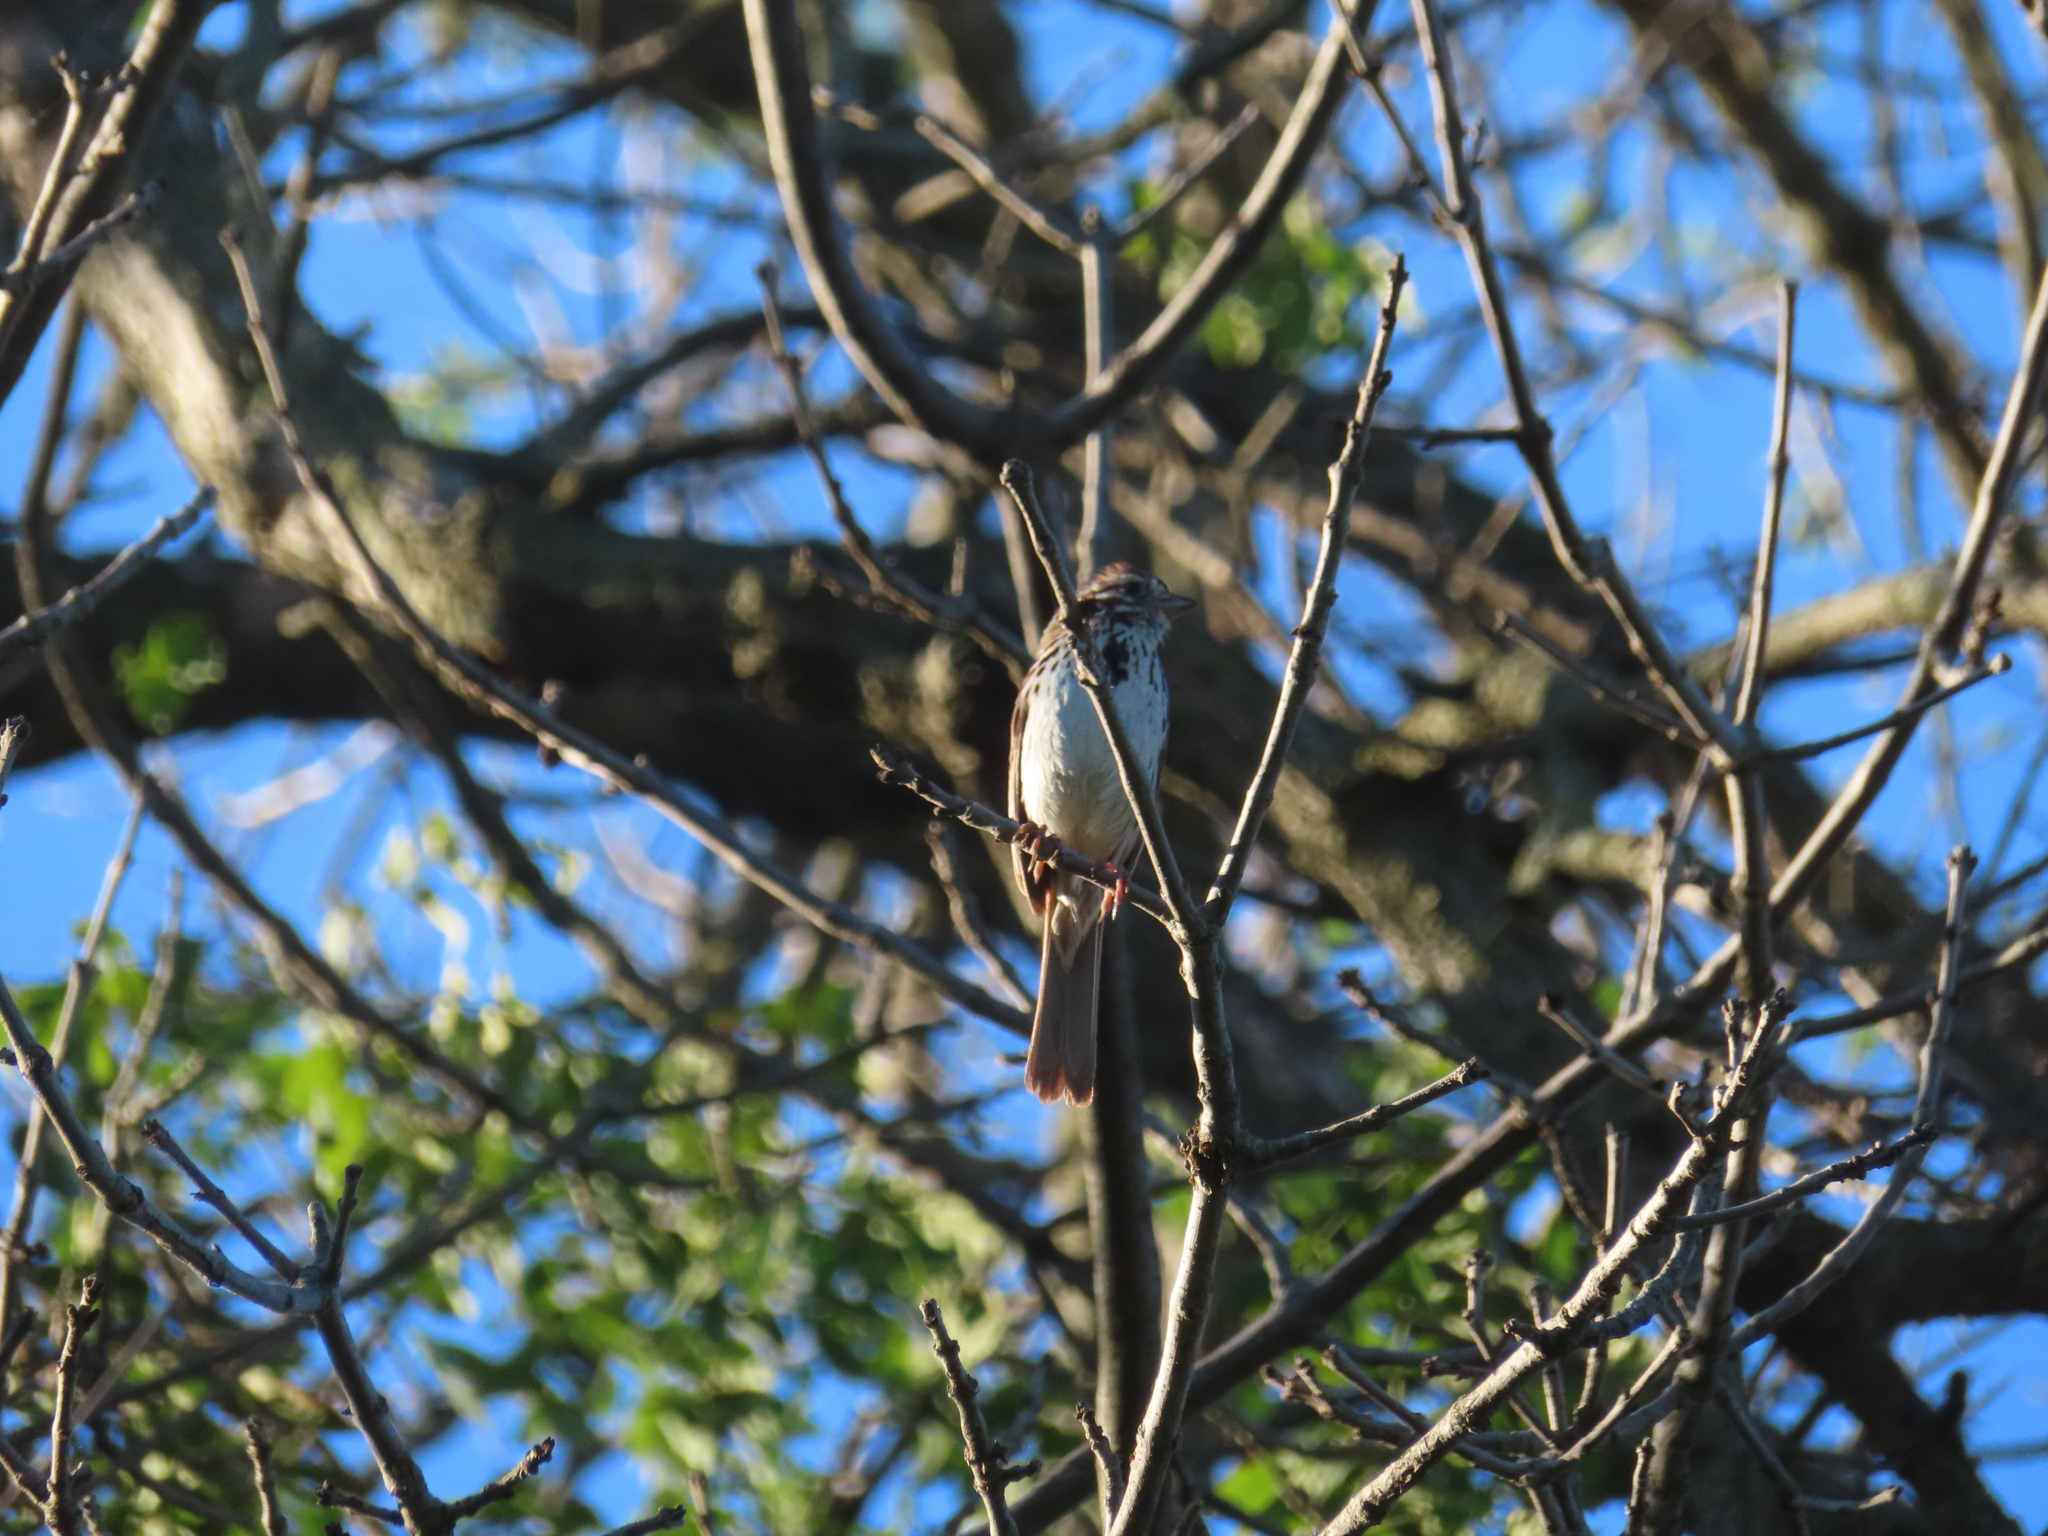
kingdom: Animalia
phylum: Chordata
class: Aves
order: Passeriformes
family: Passerellidae
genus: Melospiza
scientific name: Melospiza melodia
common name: Song sparrow
